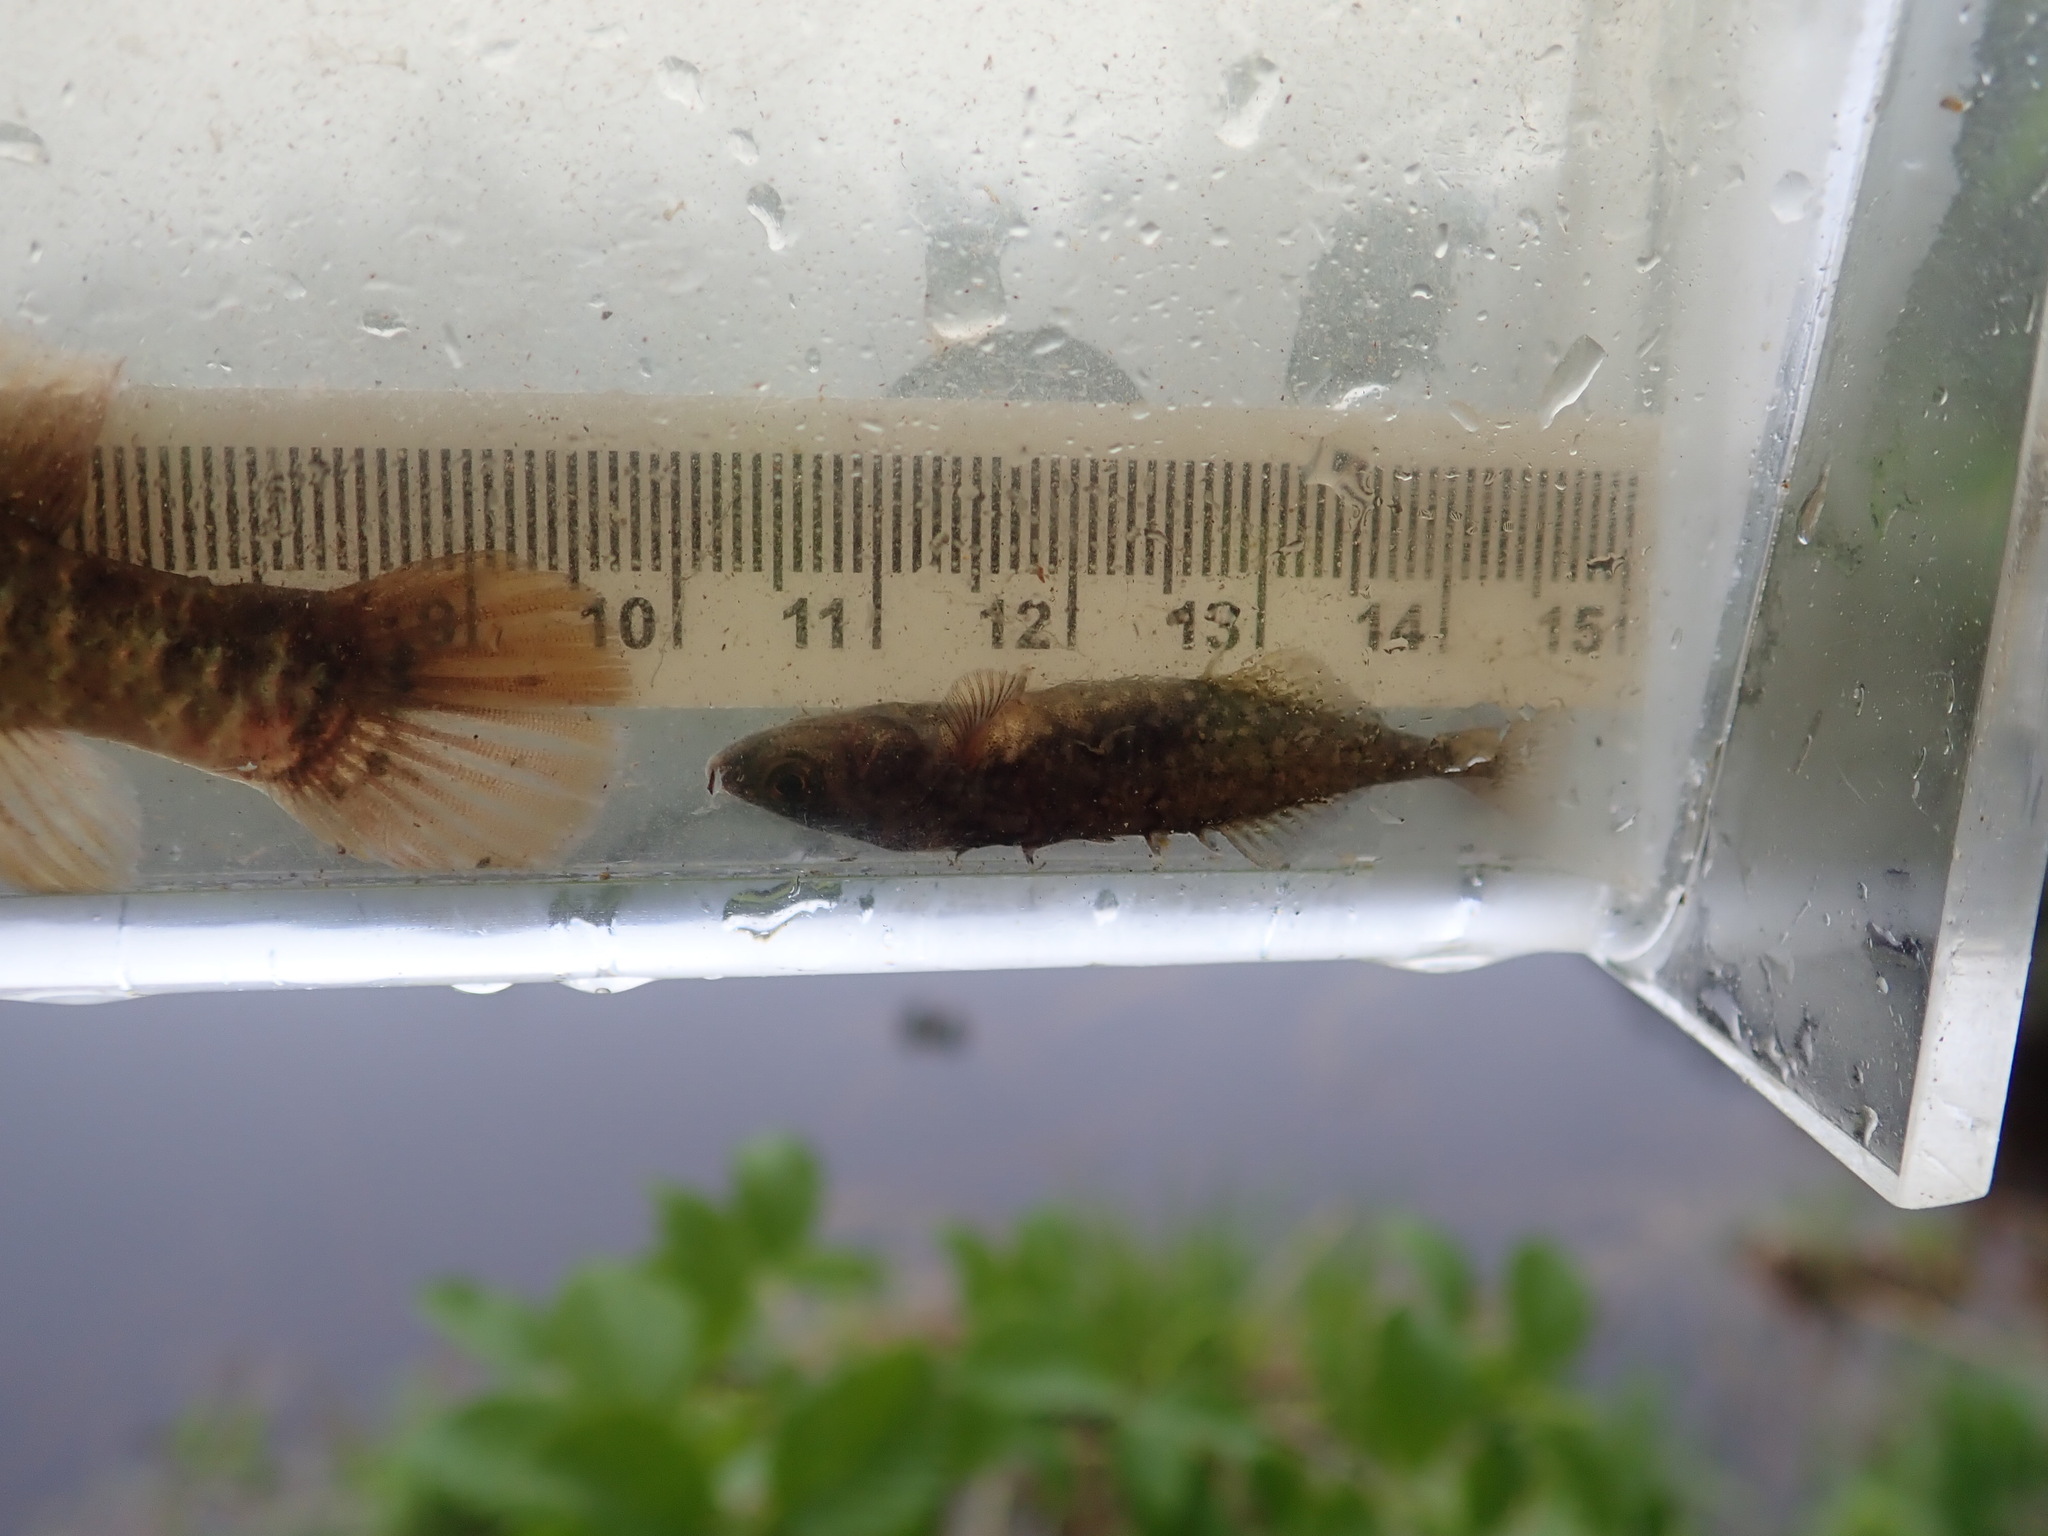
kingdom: Animalia
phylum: Chordata
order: Gasterosteiformes
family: Gasterosteidae
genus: Culaea
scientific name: Culaea inconstans
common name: Brook stickleback
